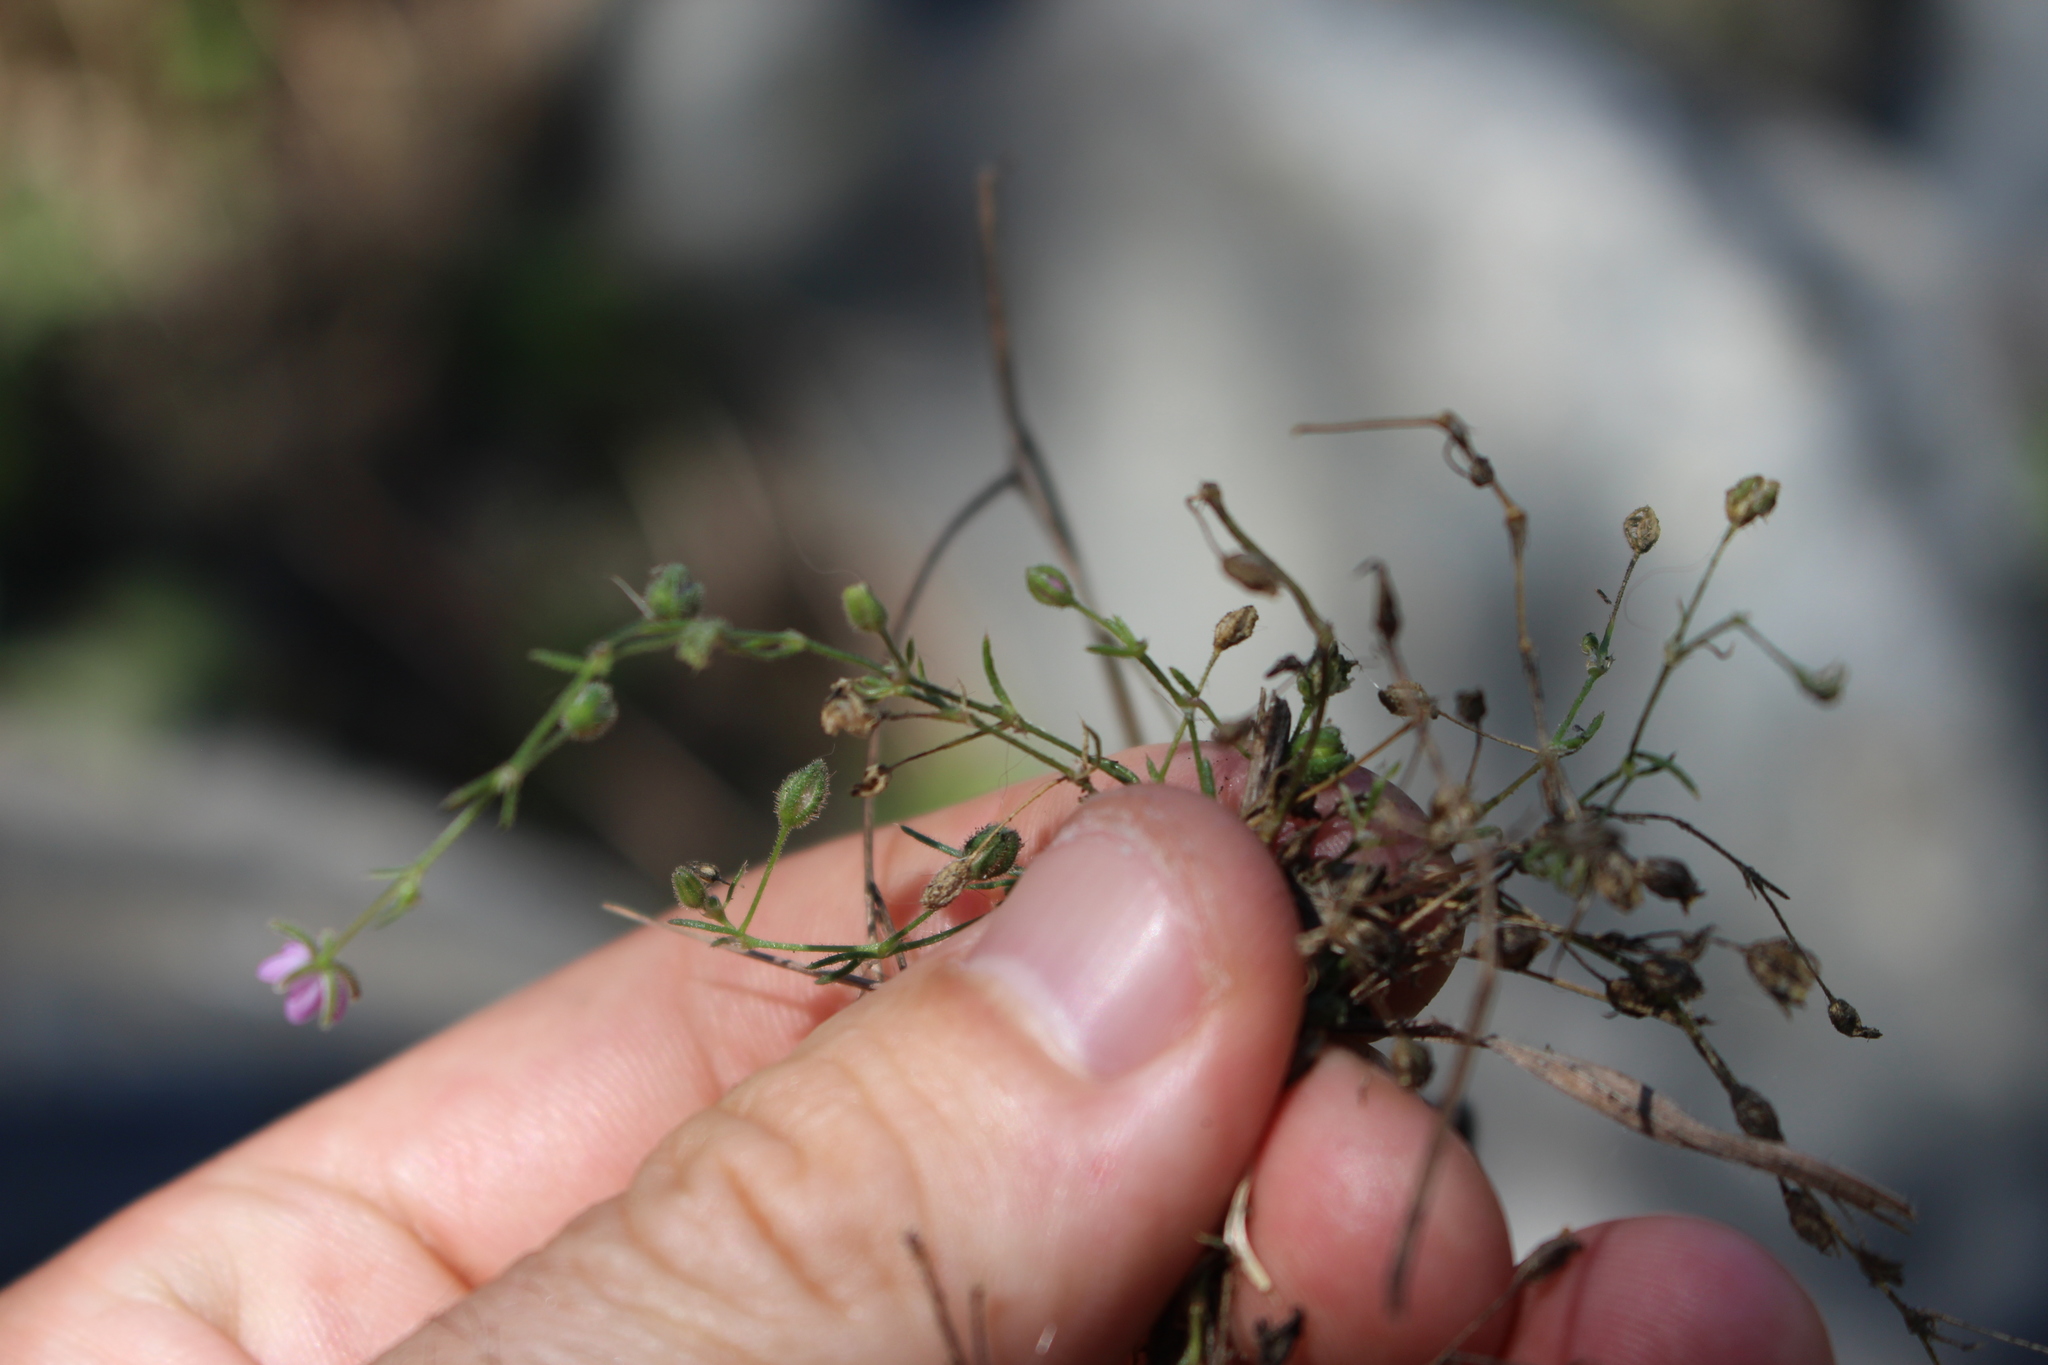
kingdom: Plantae
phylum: Tracheophyta
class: Magnoliopsida
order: Caryophyllales
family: Caryophyllaceae
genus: Spergularia
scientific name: Spergularia rubra
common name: Red sand-spurrey
